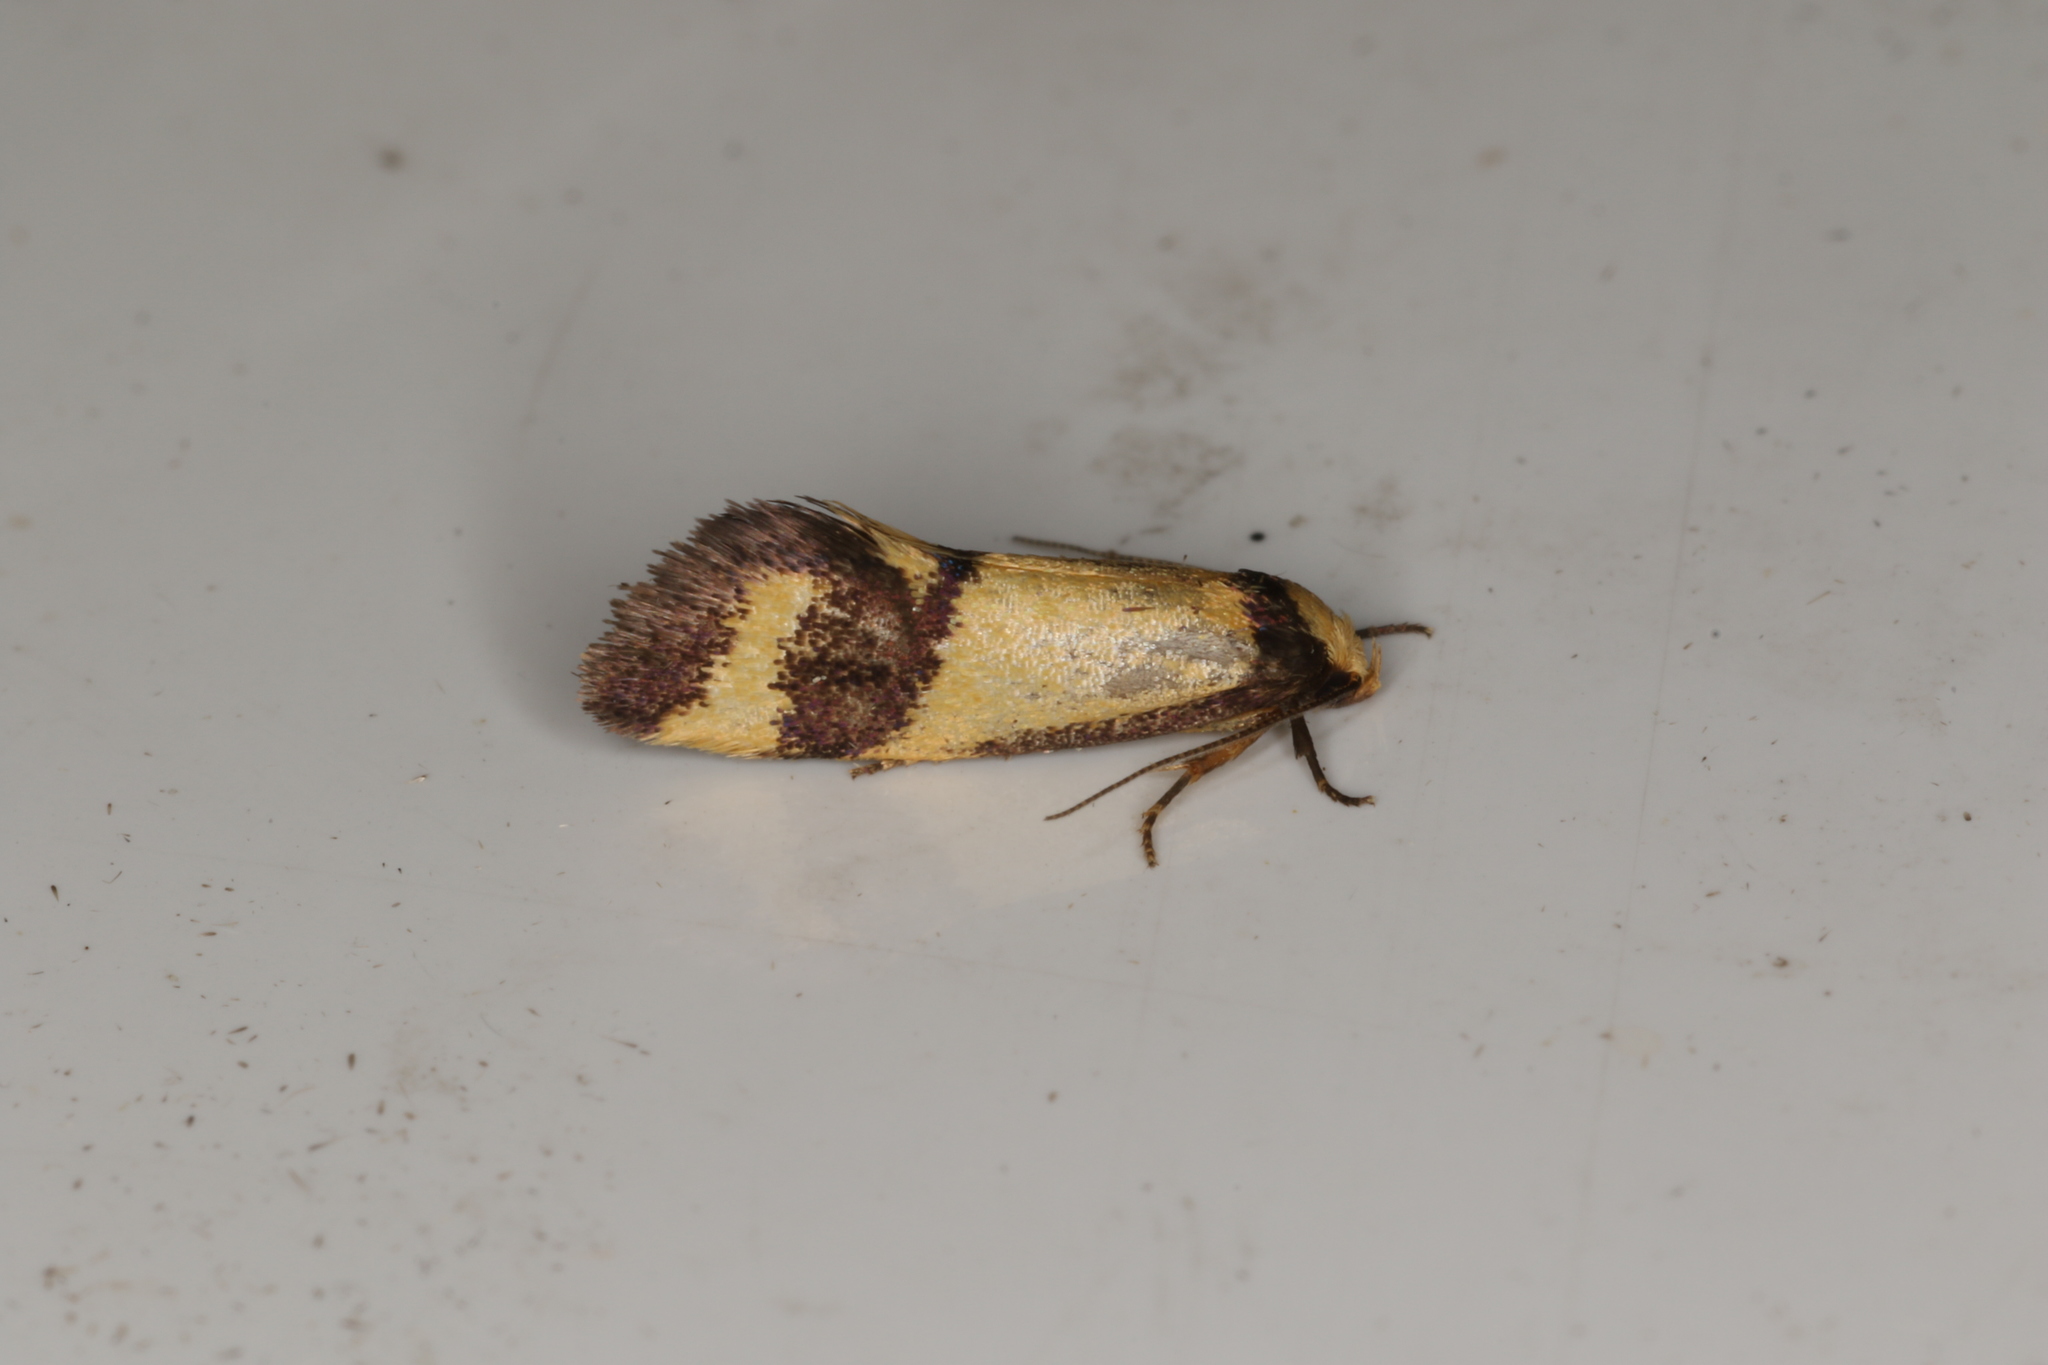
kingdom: Animalia
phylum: Arthropoda
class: Insecta
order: Lepidoptera
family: Oecophoridae
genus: Olbonoma
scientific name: Olbonoma triptycha
